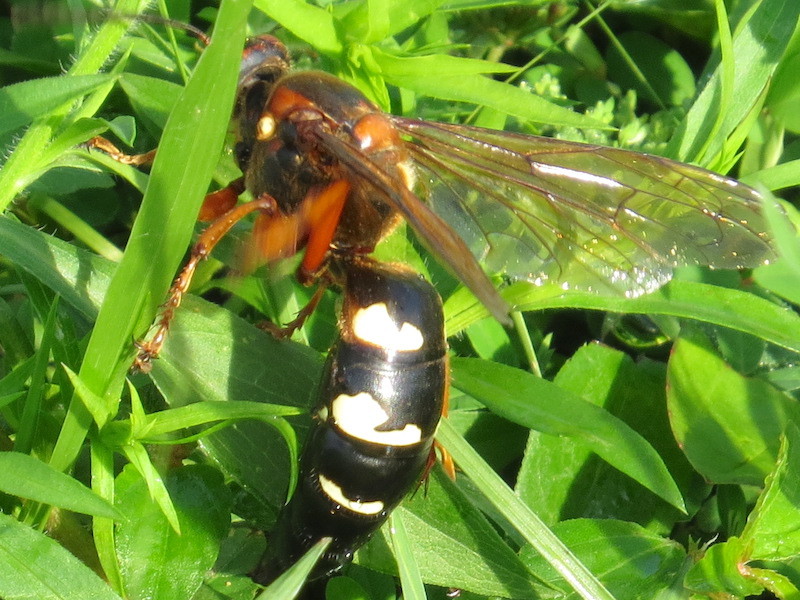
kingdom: Animalia
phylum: Arthropoda
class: Insecta
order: Hymenoptera
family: Crabronidae
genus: Sphecius
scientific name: Sphecius speciosus
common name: Cicada killer
